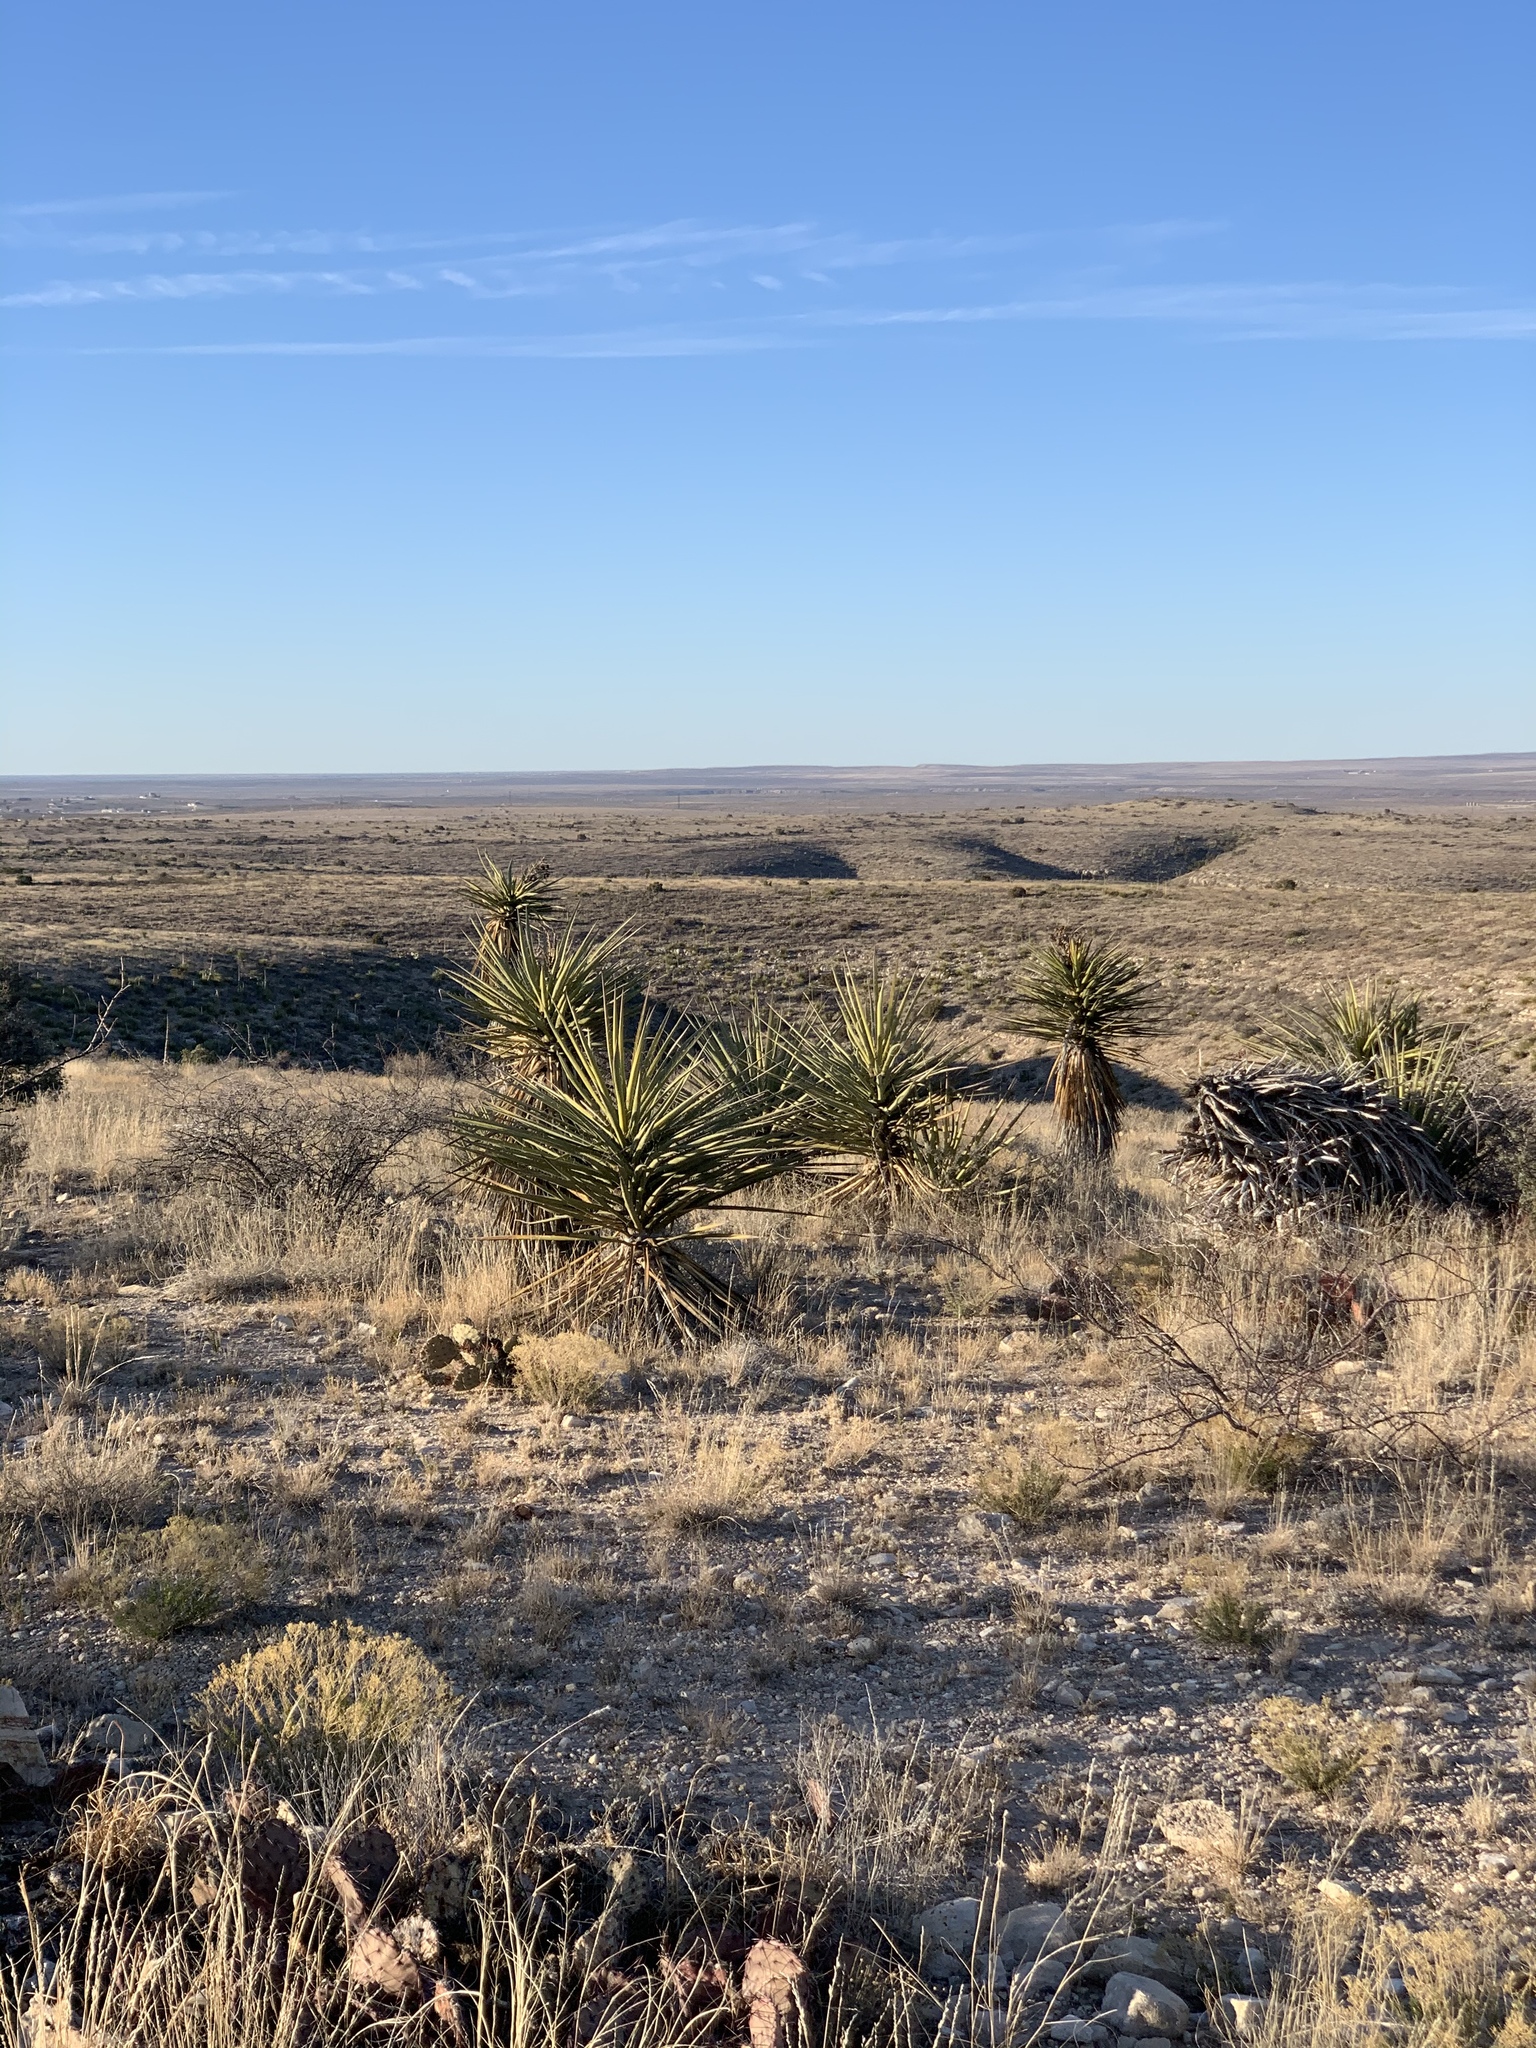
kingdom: Plantae
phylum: Tracheophyta
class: Liliopsida
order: Asparagales
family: Asparagaceae
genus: Yucca
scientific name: Yucca treculiana
